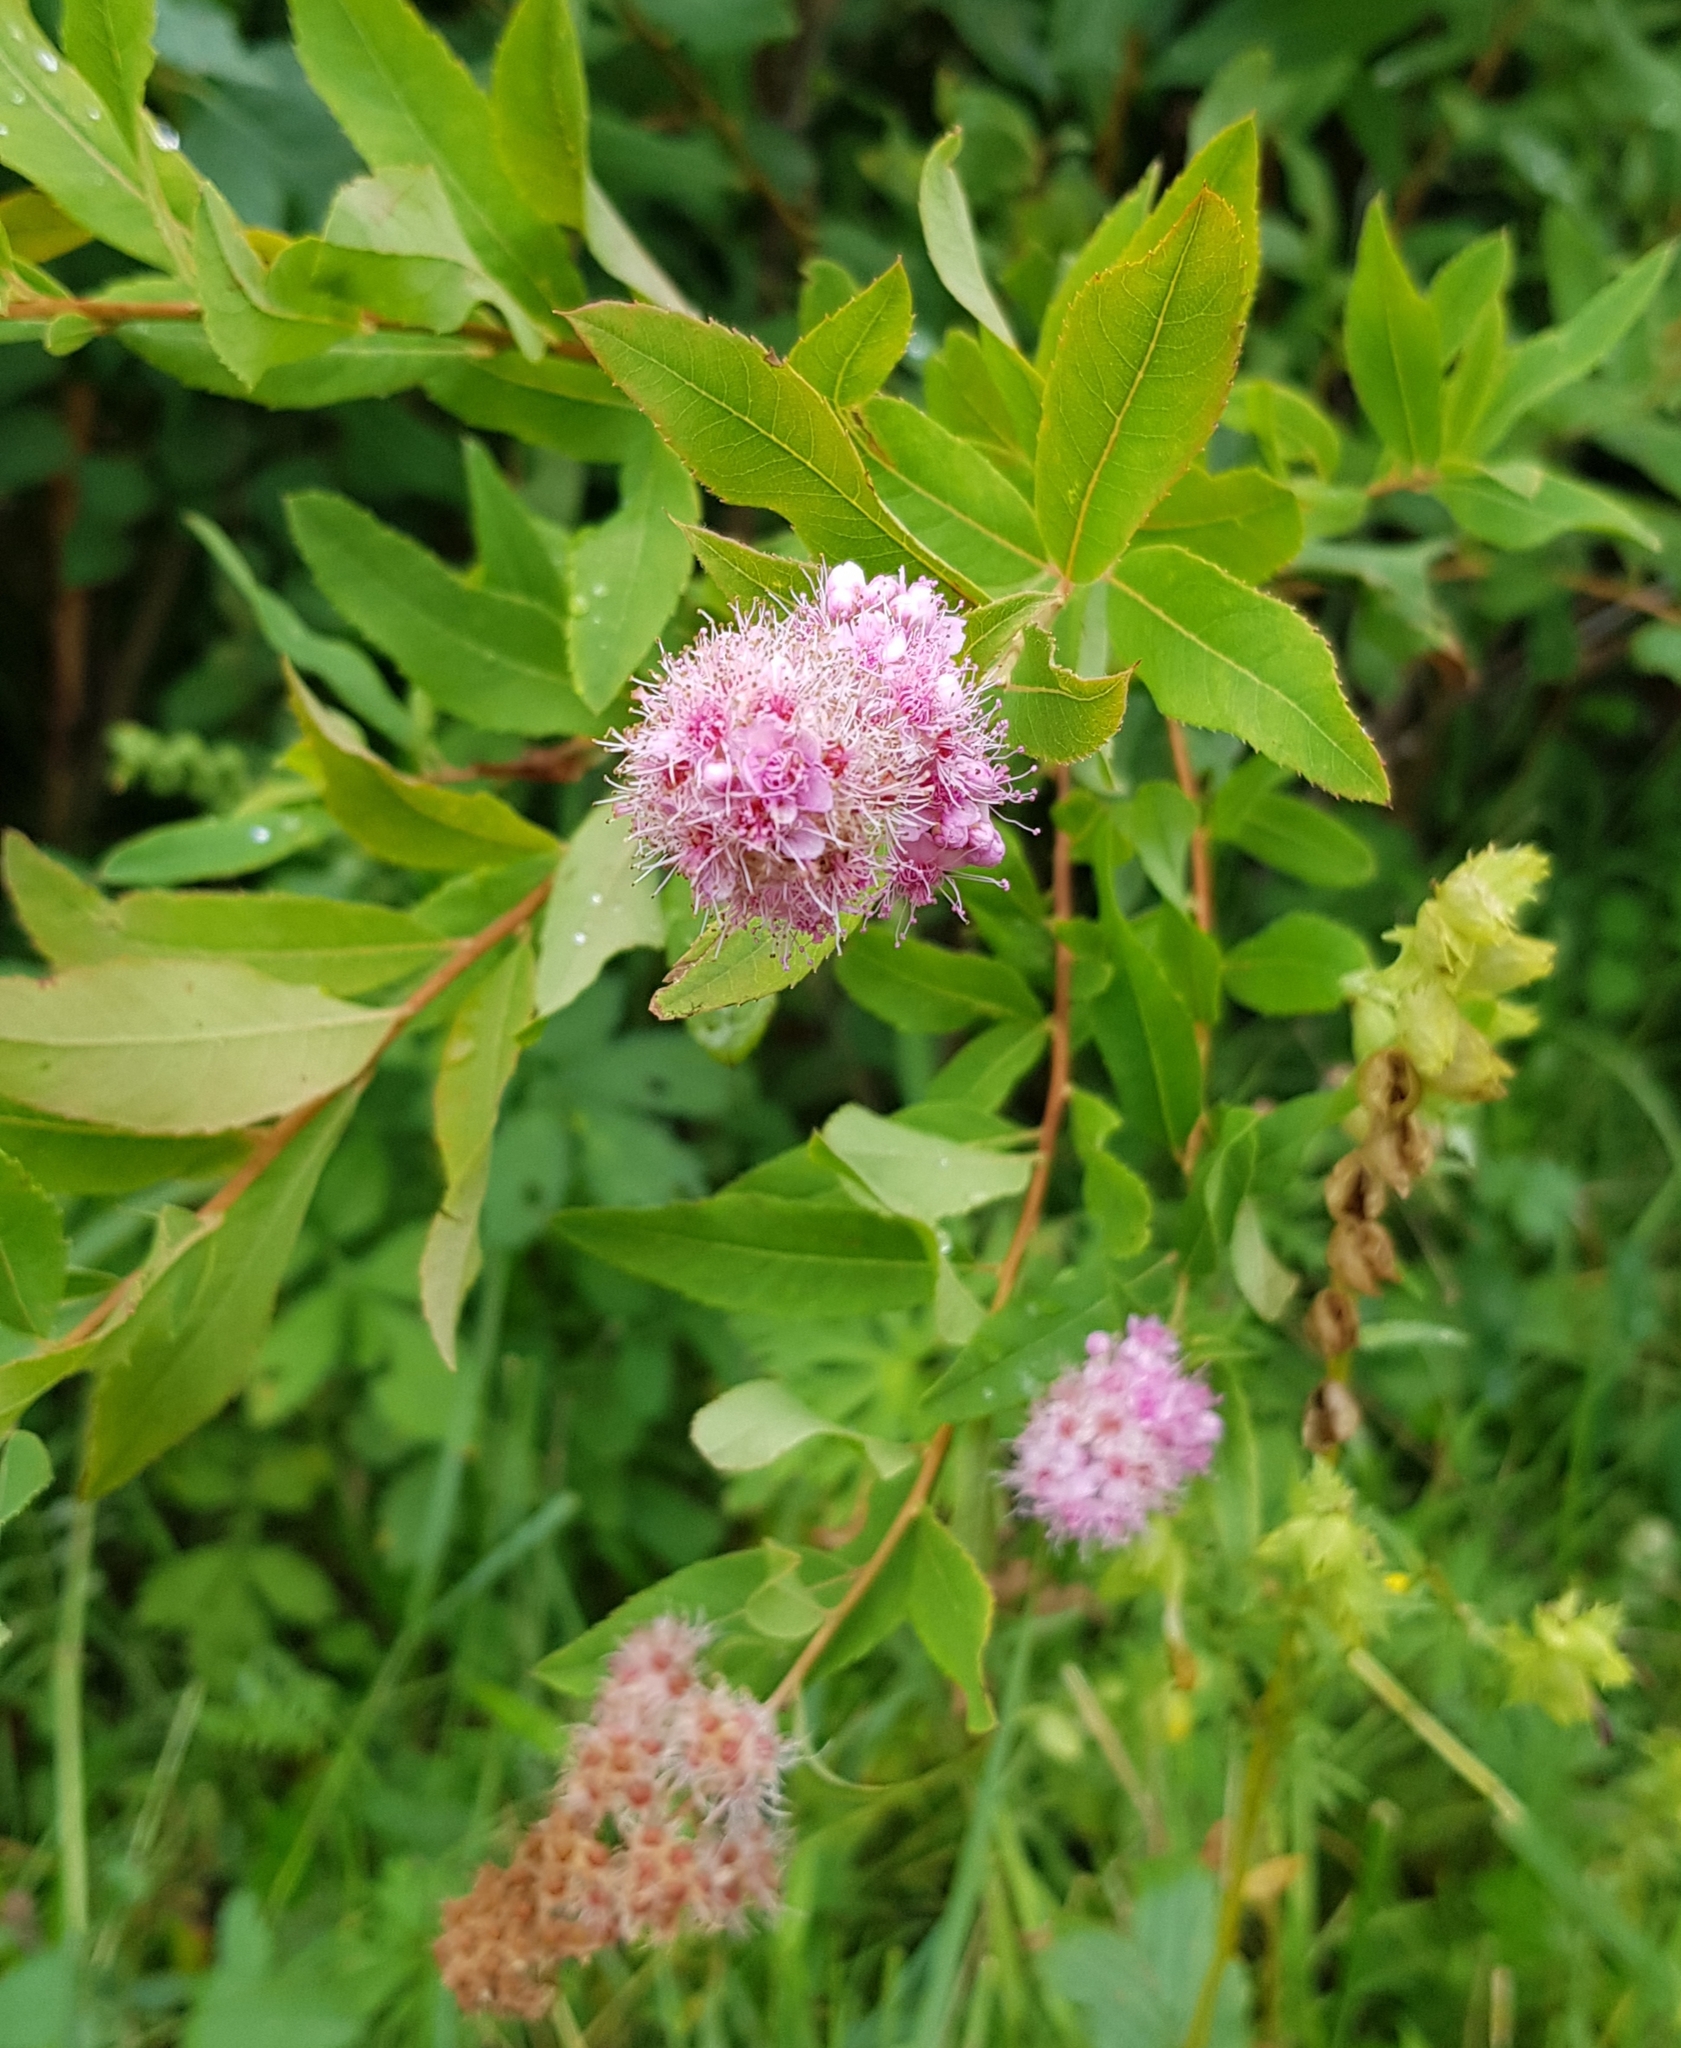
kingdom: Plantae
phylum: Tracheophyta
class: Magnoliopsida
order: Rosales
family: Rosaceae
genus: Spiraea
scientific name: Spiraea salicifolia
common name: Bridewort
